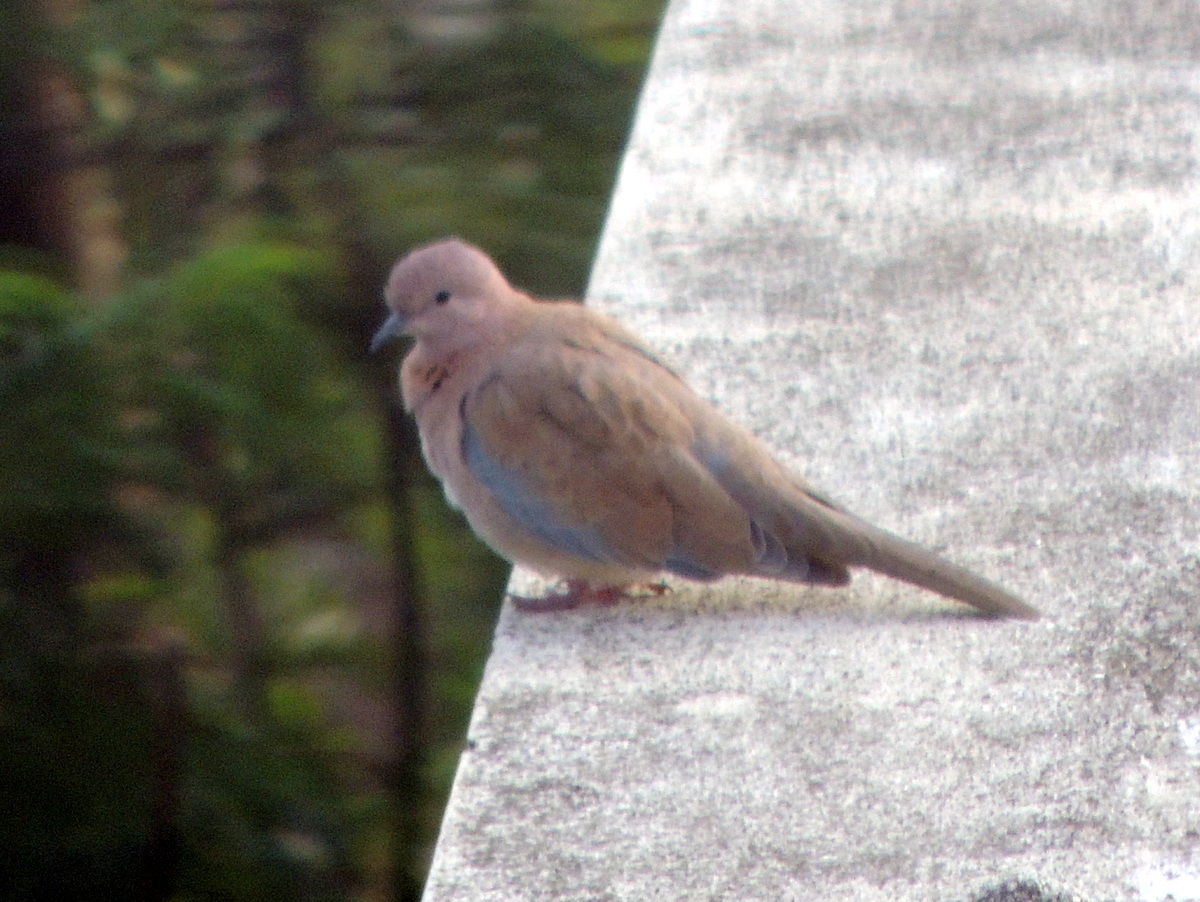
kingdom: Animalia
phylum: Chordata
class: Aves
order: Columbiformes
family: Columbidae
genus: Spilopelia
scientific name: Spilopelia senegalensis
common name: Laughing dove
